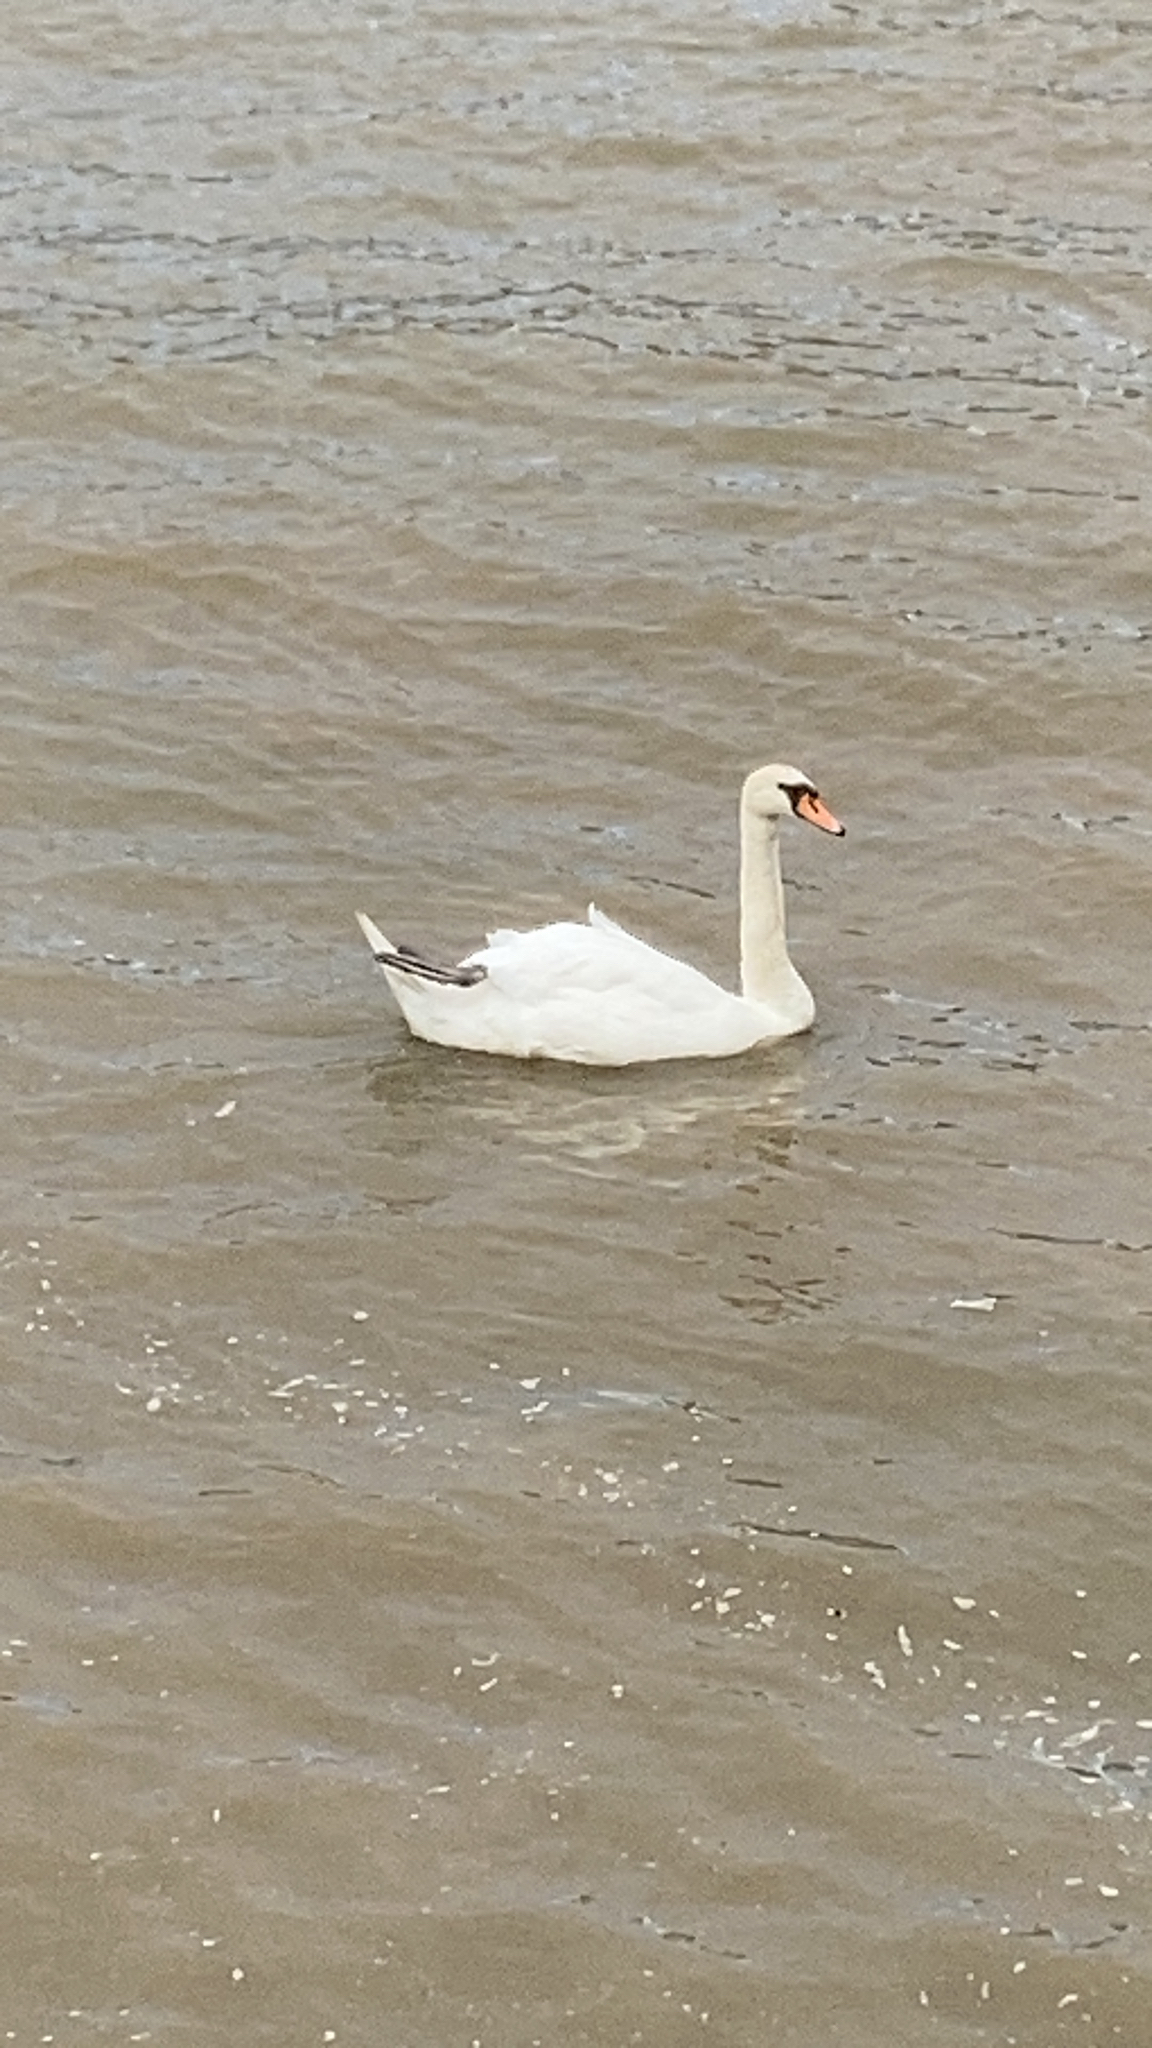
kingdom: Animalia
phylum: Chordata
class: Aves
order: Anseriformes
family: Anatidae
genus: Cygnus
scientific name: Cygnus olor
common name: Mute swan
